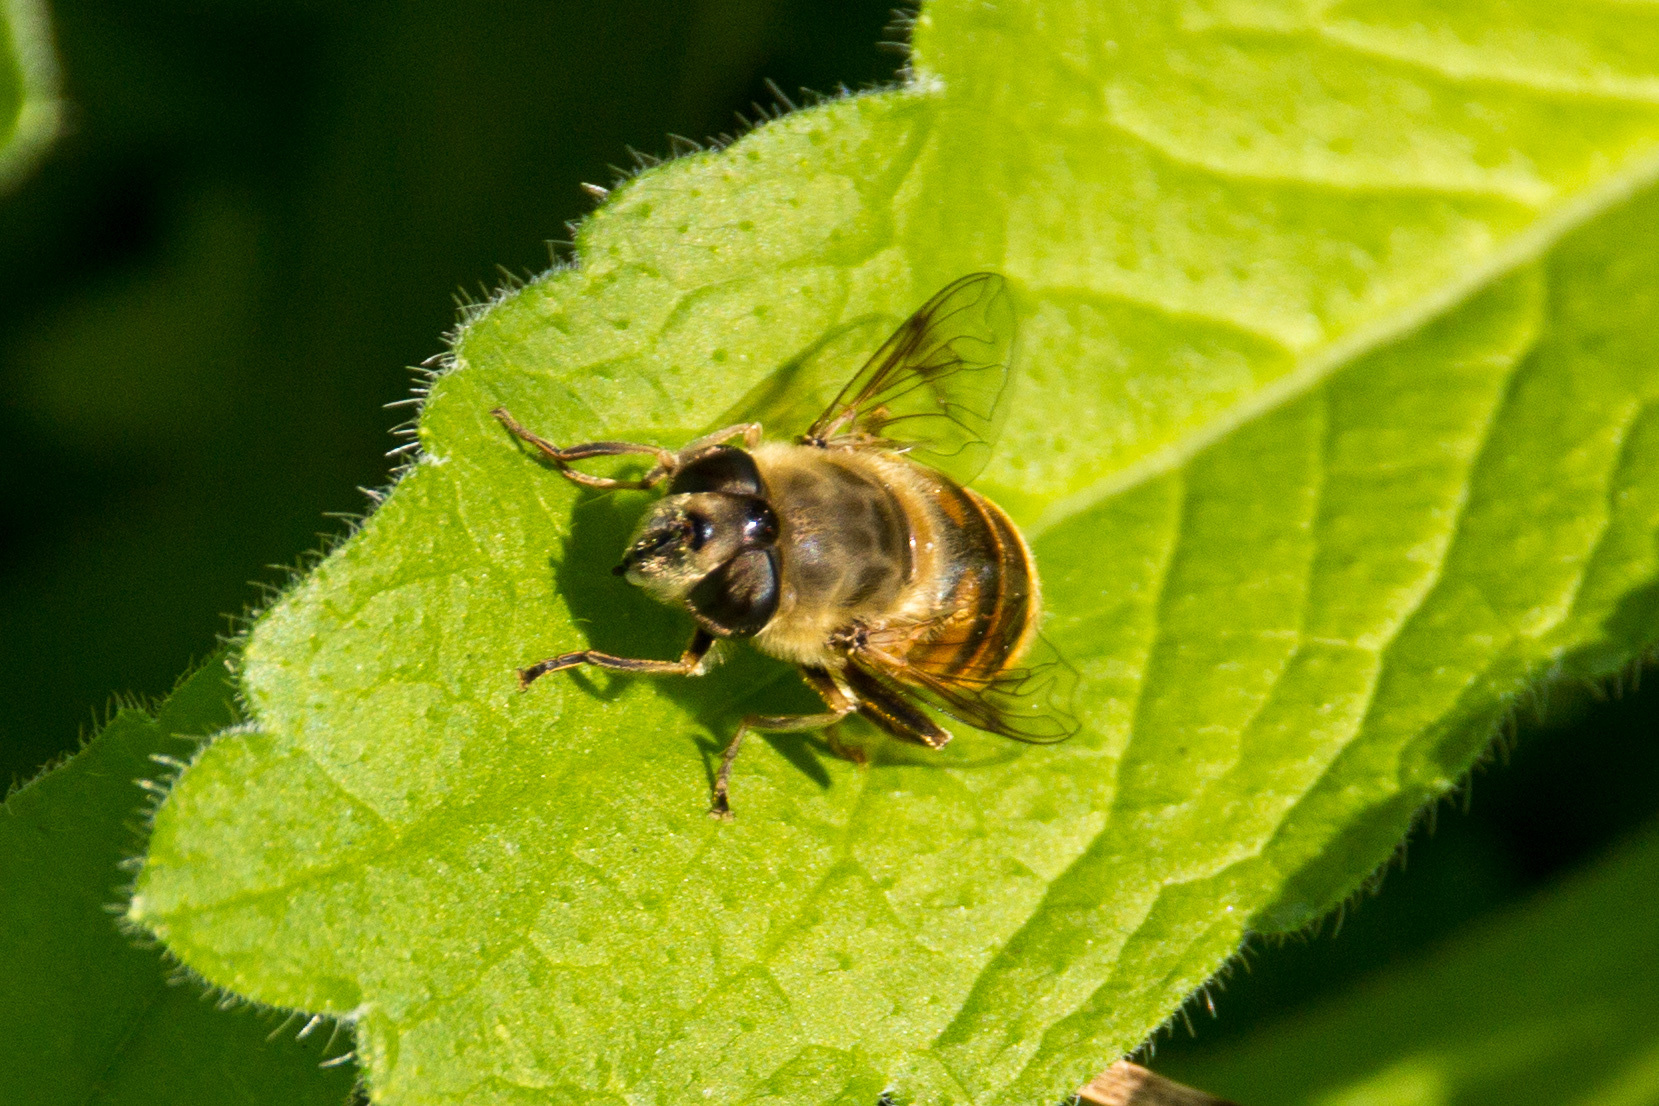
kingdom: Animalia
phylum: Arthropoda
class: Insecta
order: Diptera
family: Syrphidae
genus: Eristalis
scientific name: Eristalis tenax
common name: Drone fly
